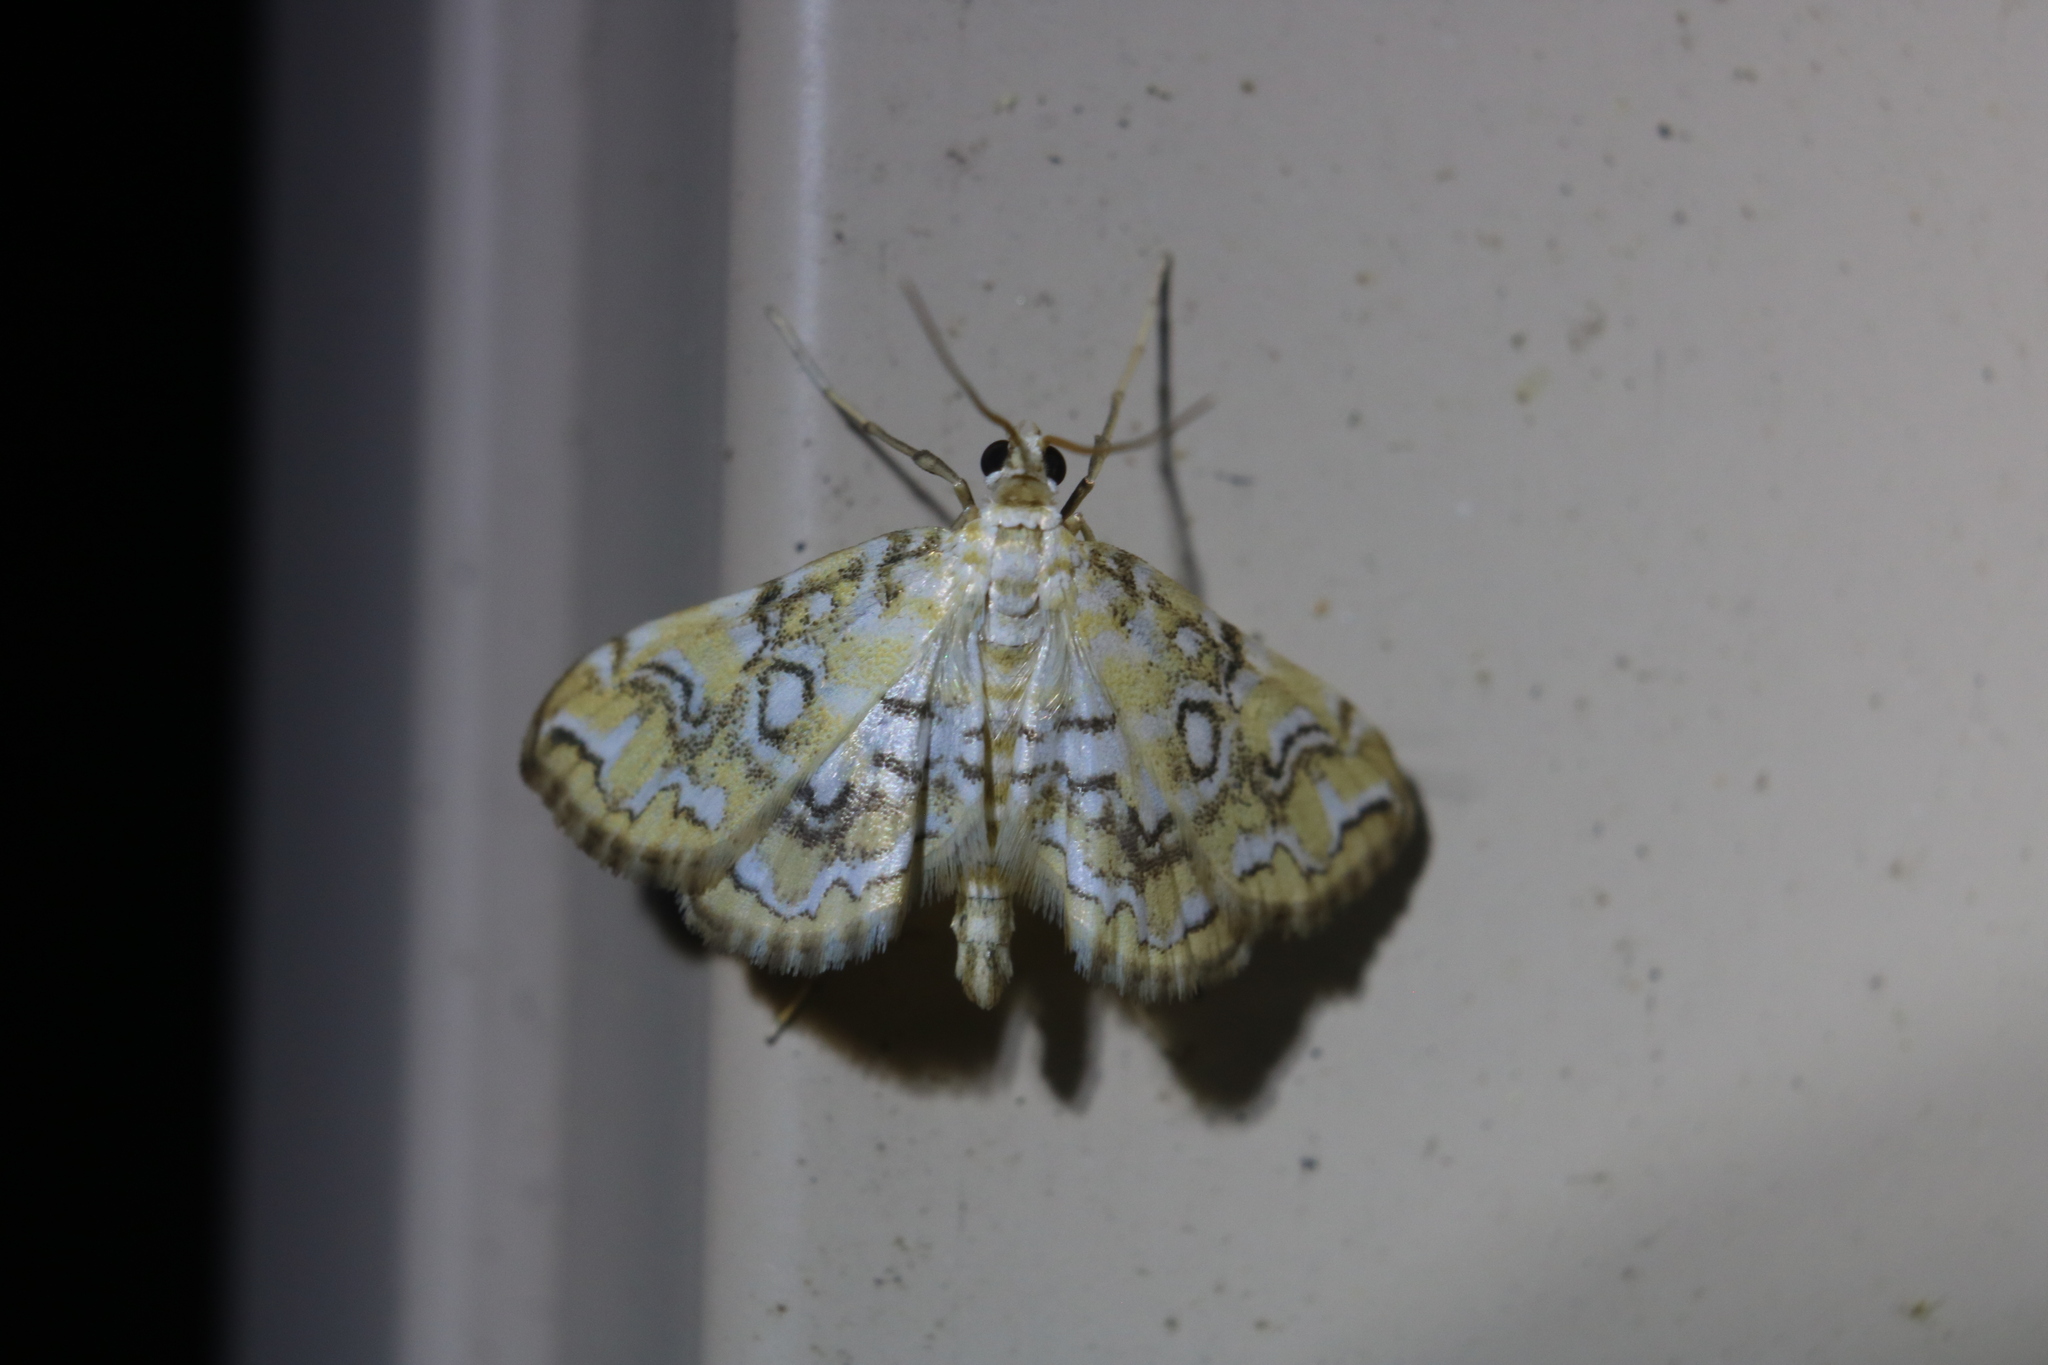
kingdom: Animalia
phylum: Arthropoda
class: Insecta
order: Lepidoptera
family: Crambidae
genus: Elophila
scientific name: Elophila icciusalis
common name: Pondside pyralid moth
